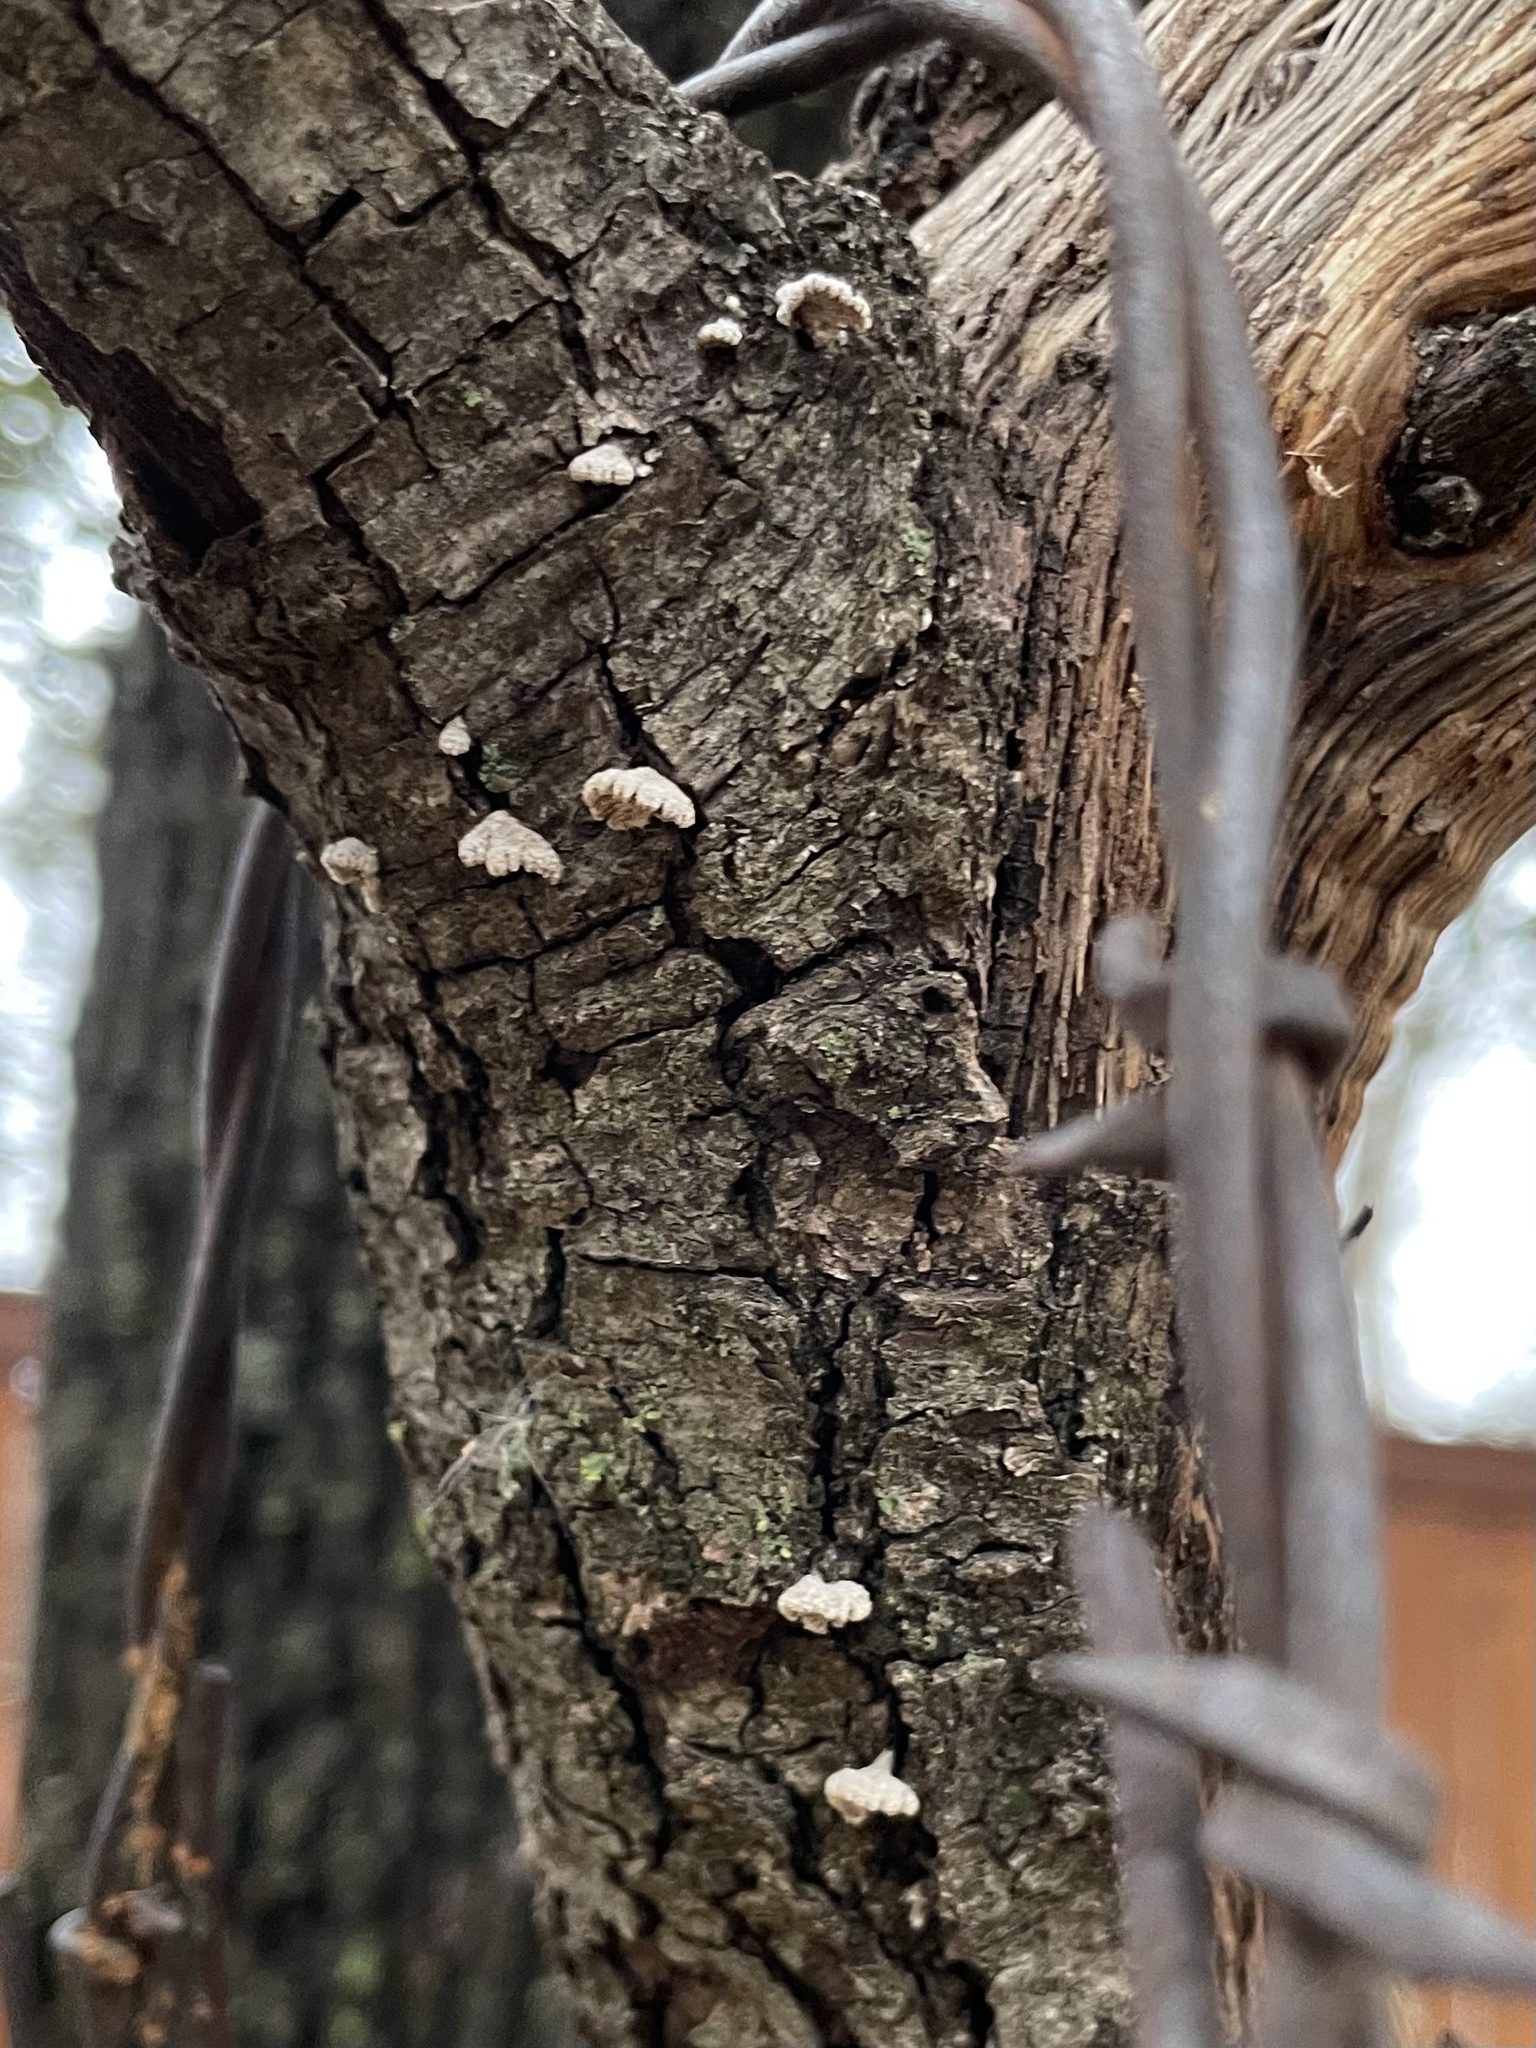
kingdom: Fungi
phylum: Basidiomycota
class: Agaricomycetes
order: Agaricales
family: Schizophyllaceae
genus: Schizophyllum
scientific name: Schizophyllum commune
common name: Common porecrust
